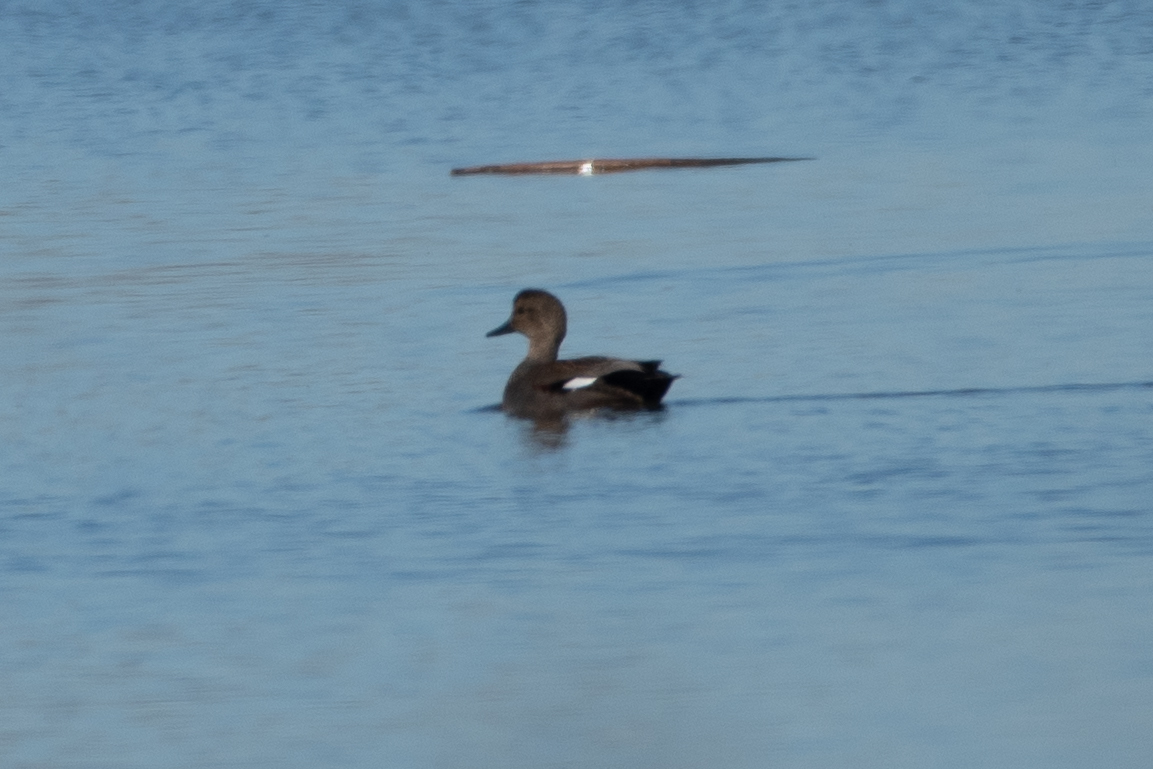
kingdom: Animalia
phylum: Chordata
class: Aves
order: Anseriformes
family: Anatidae
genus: Mareca
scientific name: Mareca strepera
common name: Gadwall
